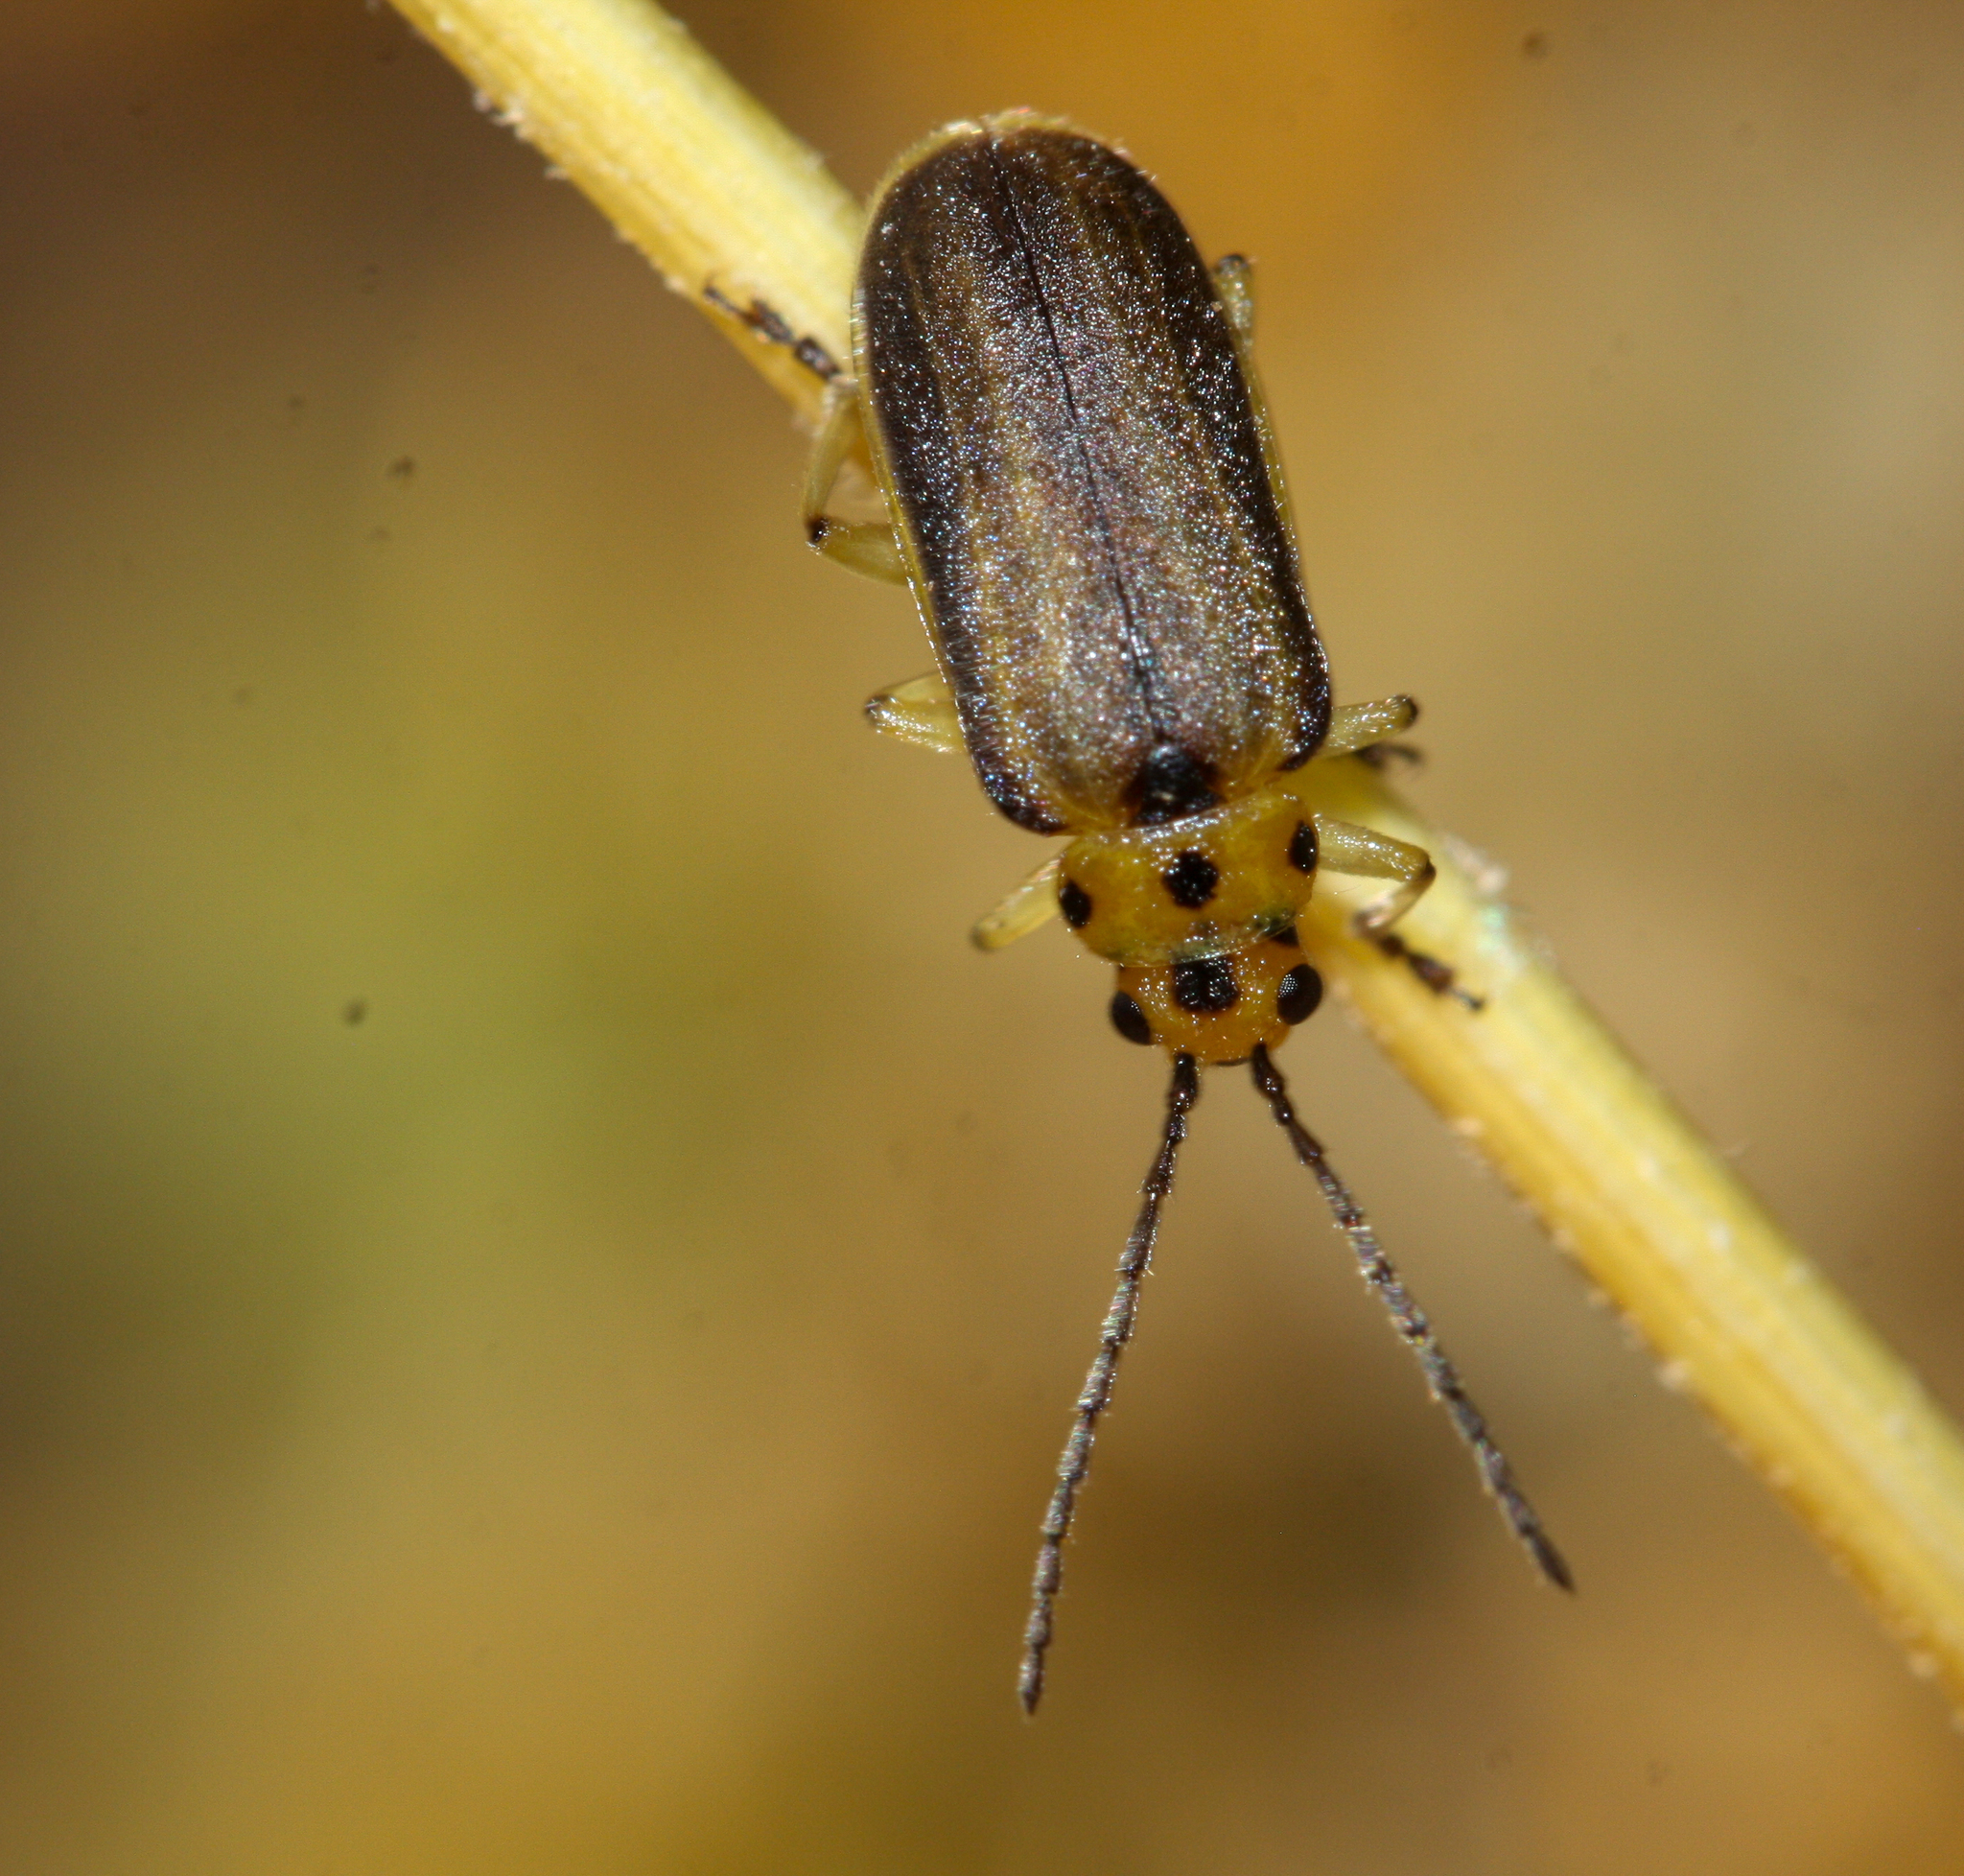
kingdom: Animalia
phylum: Arthropoda
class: Insecta
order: Coleoptera
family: Chrysomelidae
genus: Trirhabda
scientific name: Trirhabda geminata
